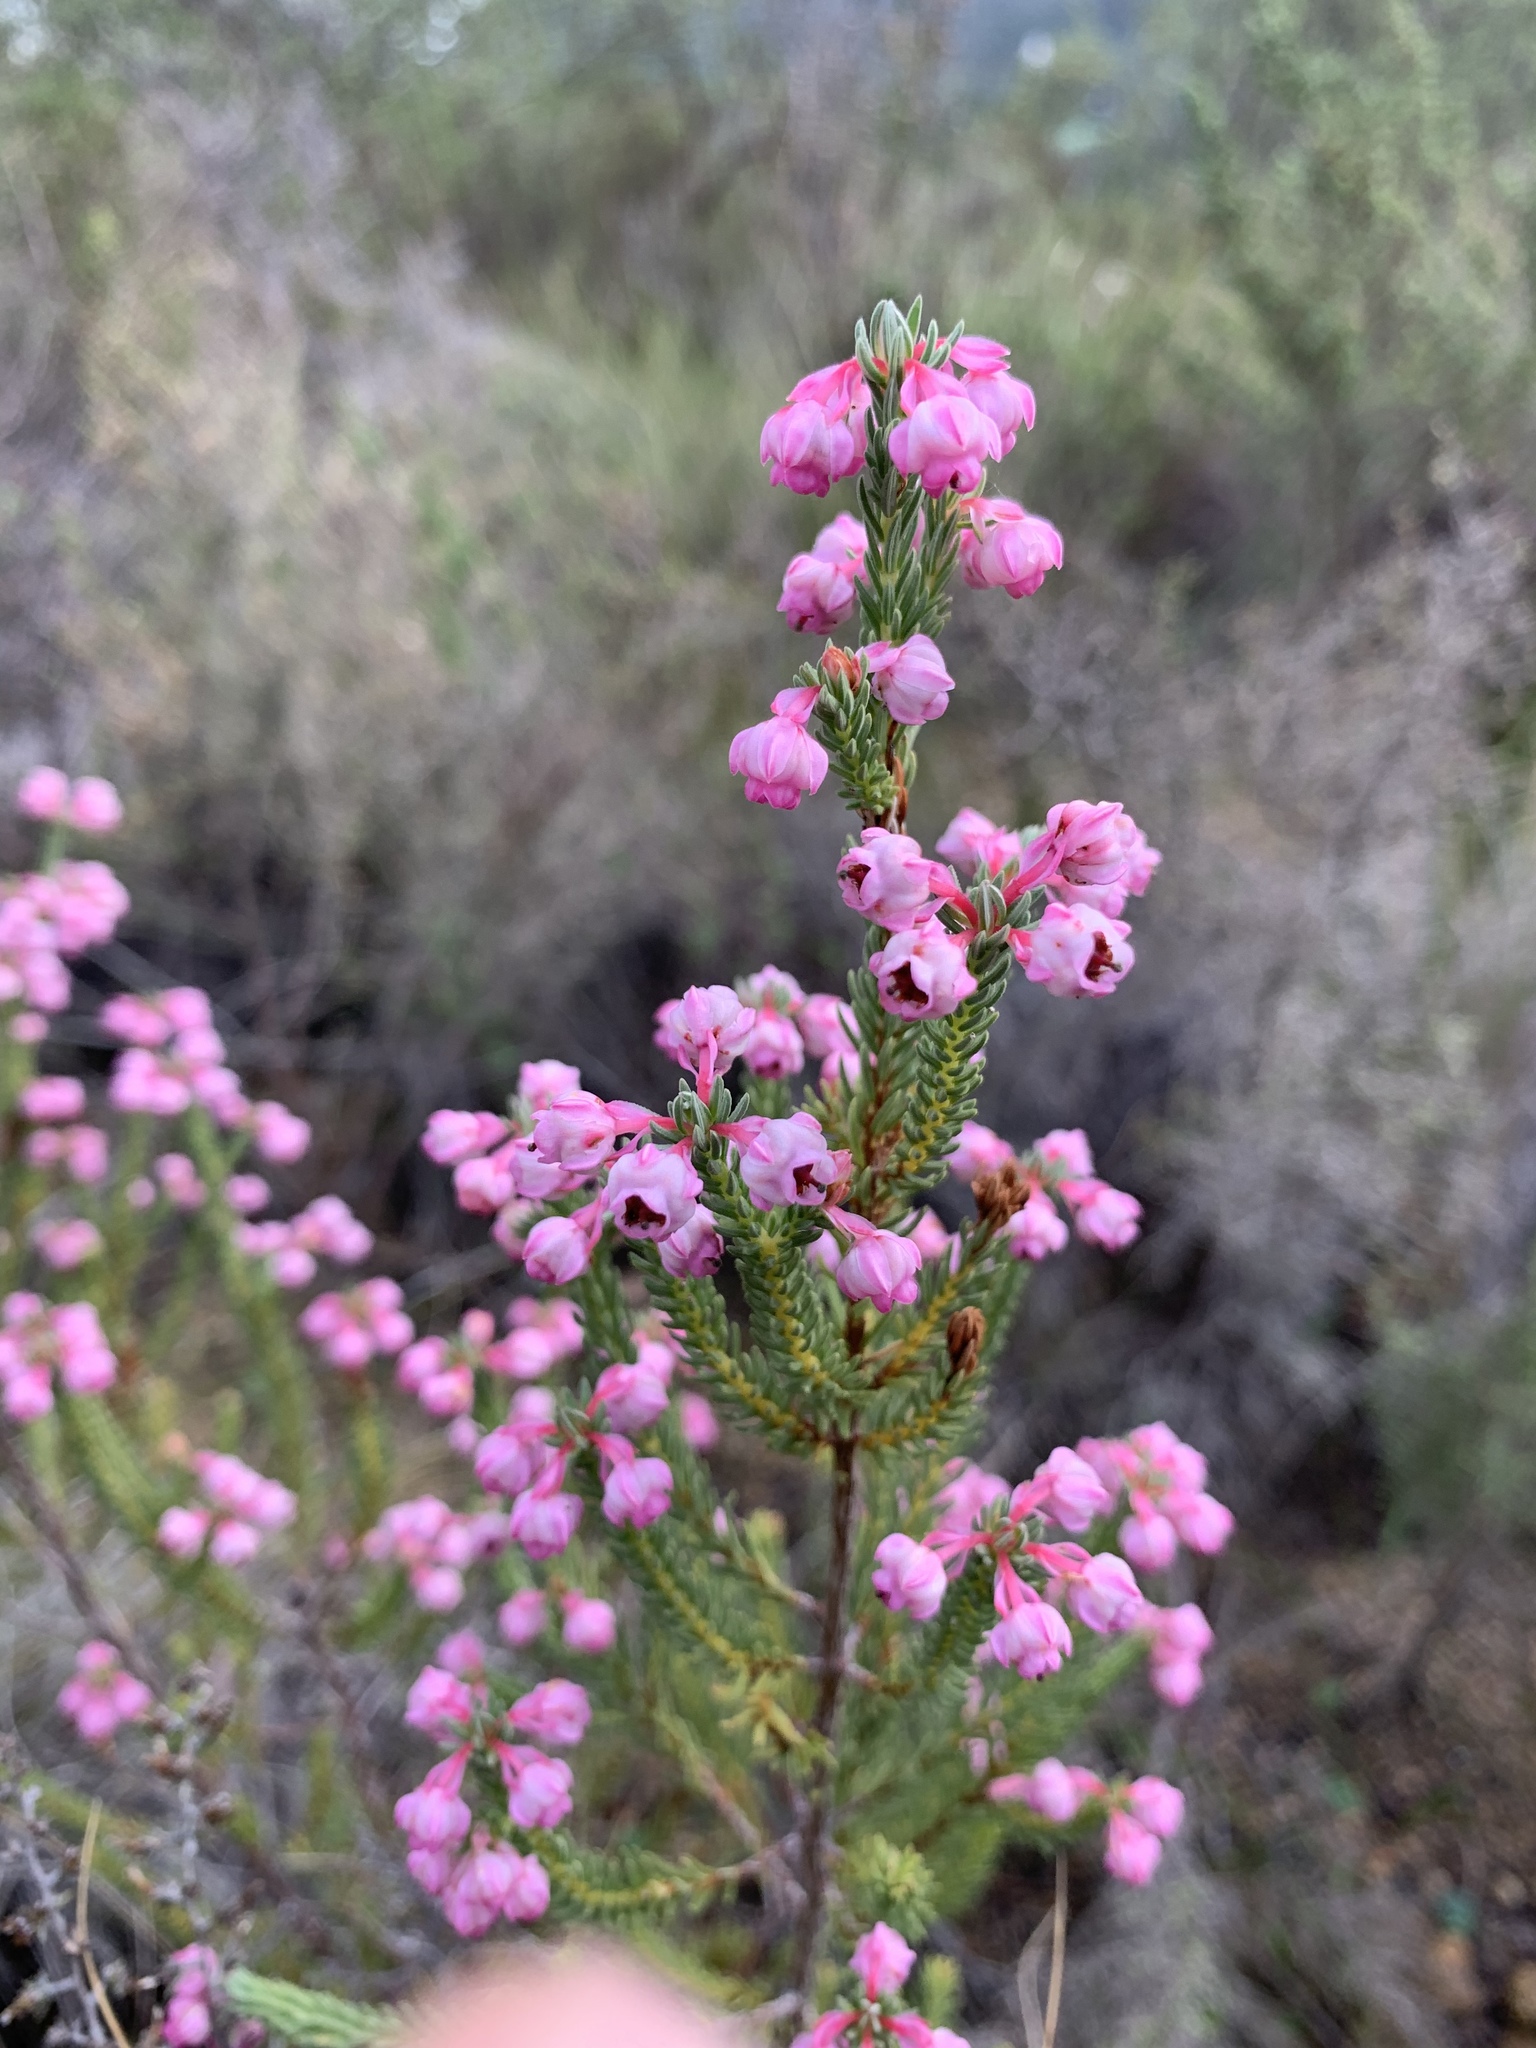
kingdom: Plantae
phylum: Tracheophyta
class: Magnoliopsida
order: Ericales
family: Ericaceae
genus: Erica
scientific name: Erica baccans
